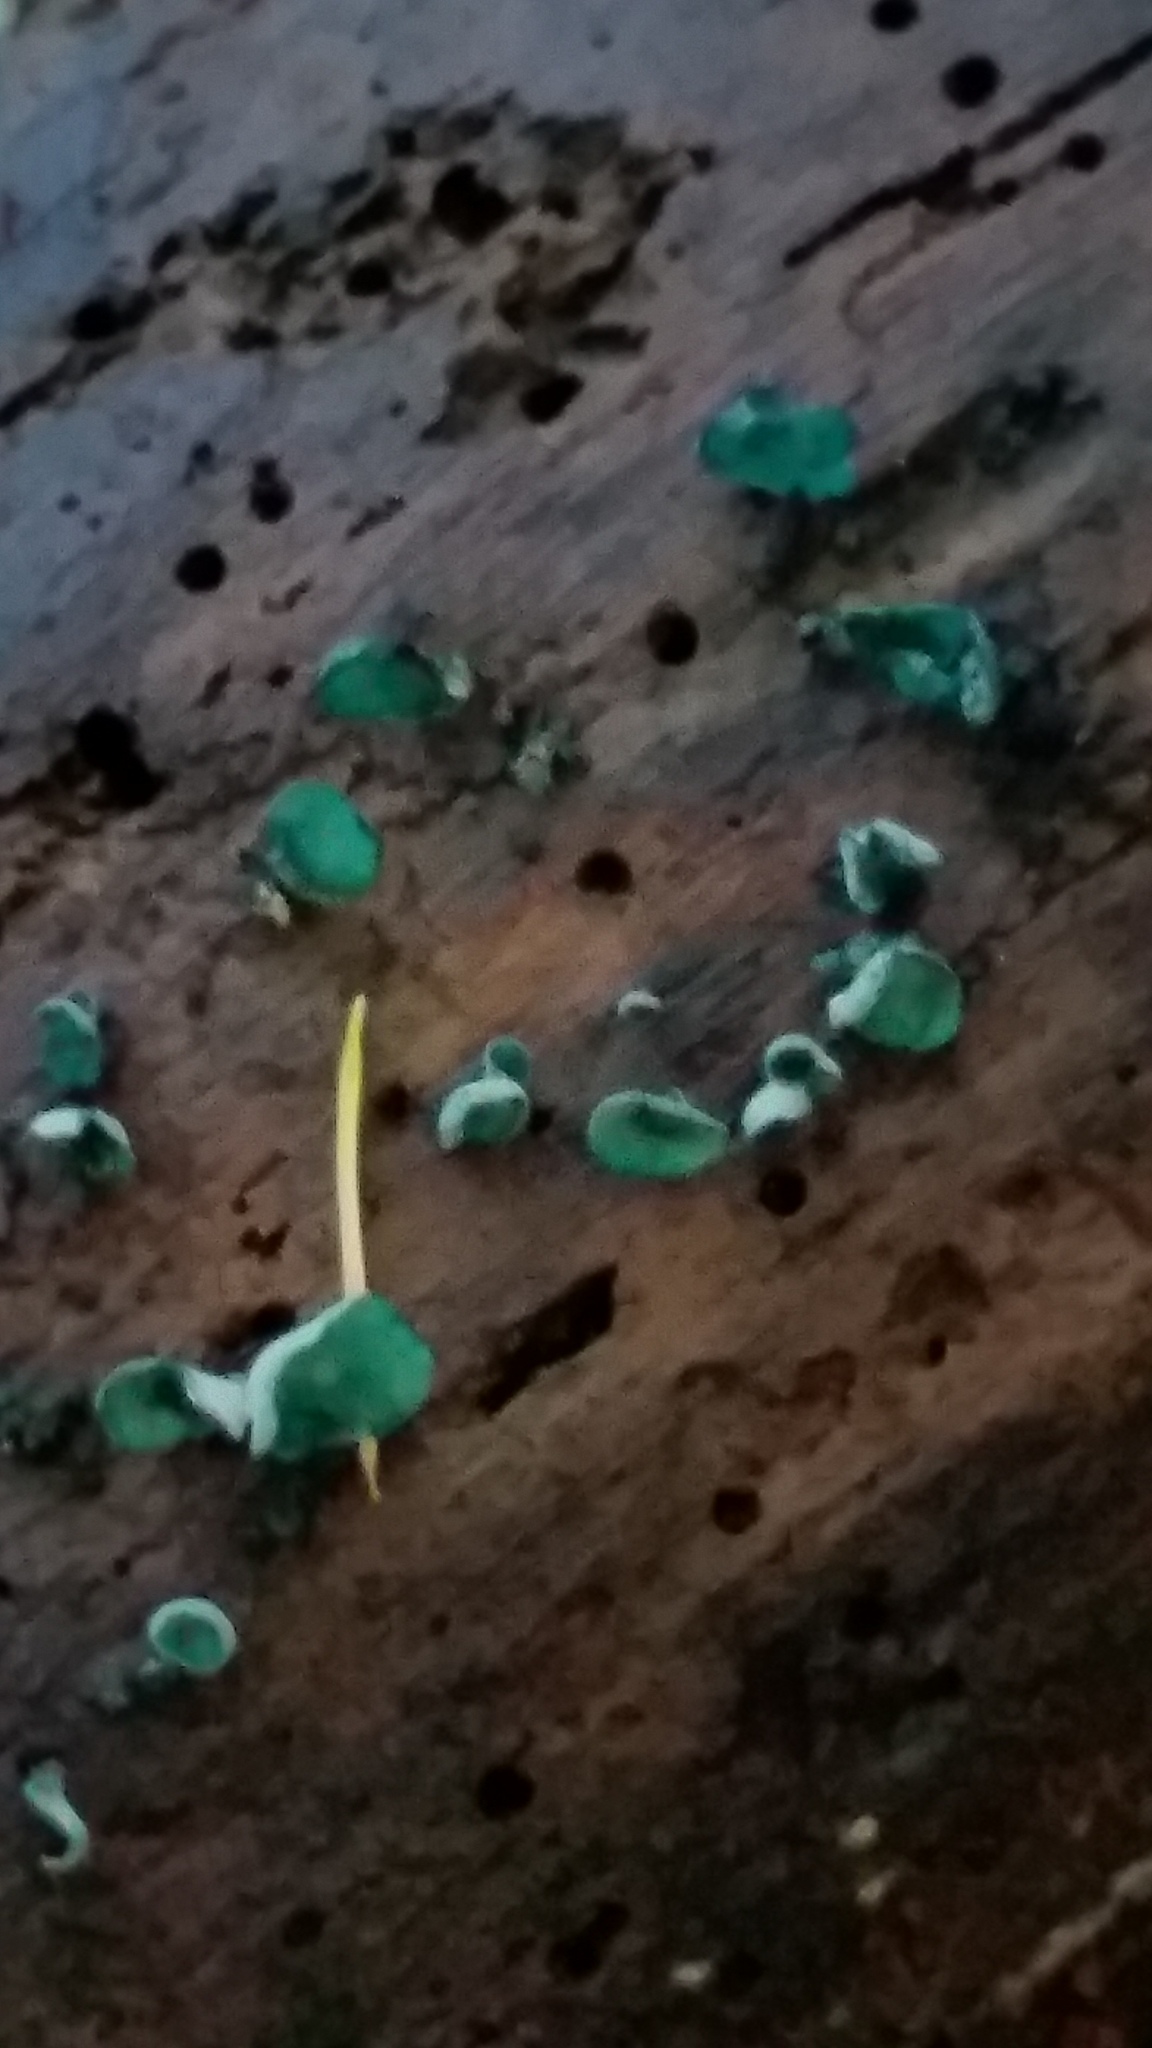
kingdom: Fungi
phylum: Ascomycota
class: Leotiomycetes
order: Helotiales
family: Chlorociboriaceae
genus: Chlorociboria
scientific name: Chlorociboria aeruginascens
